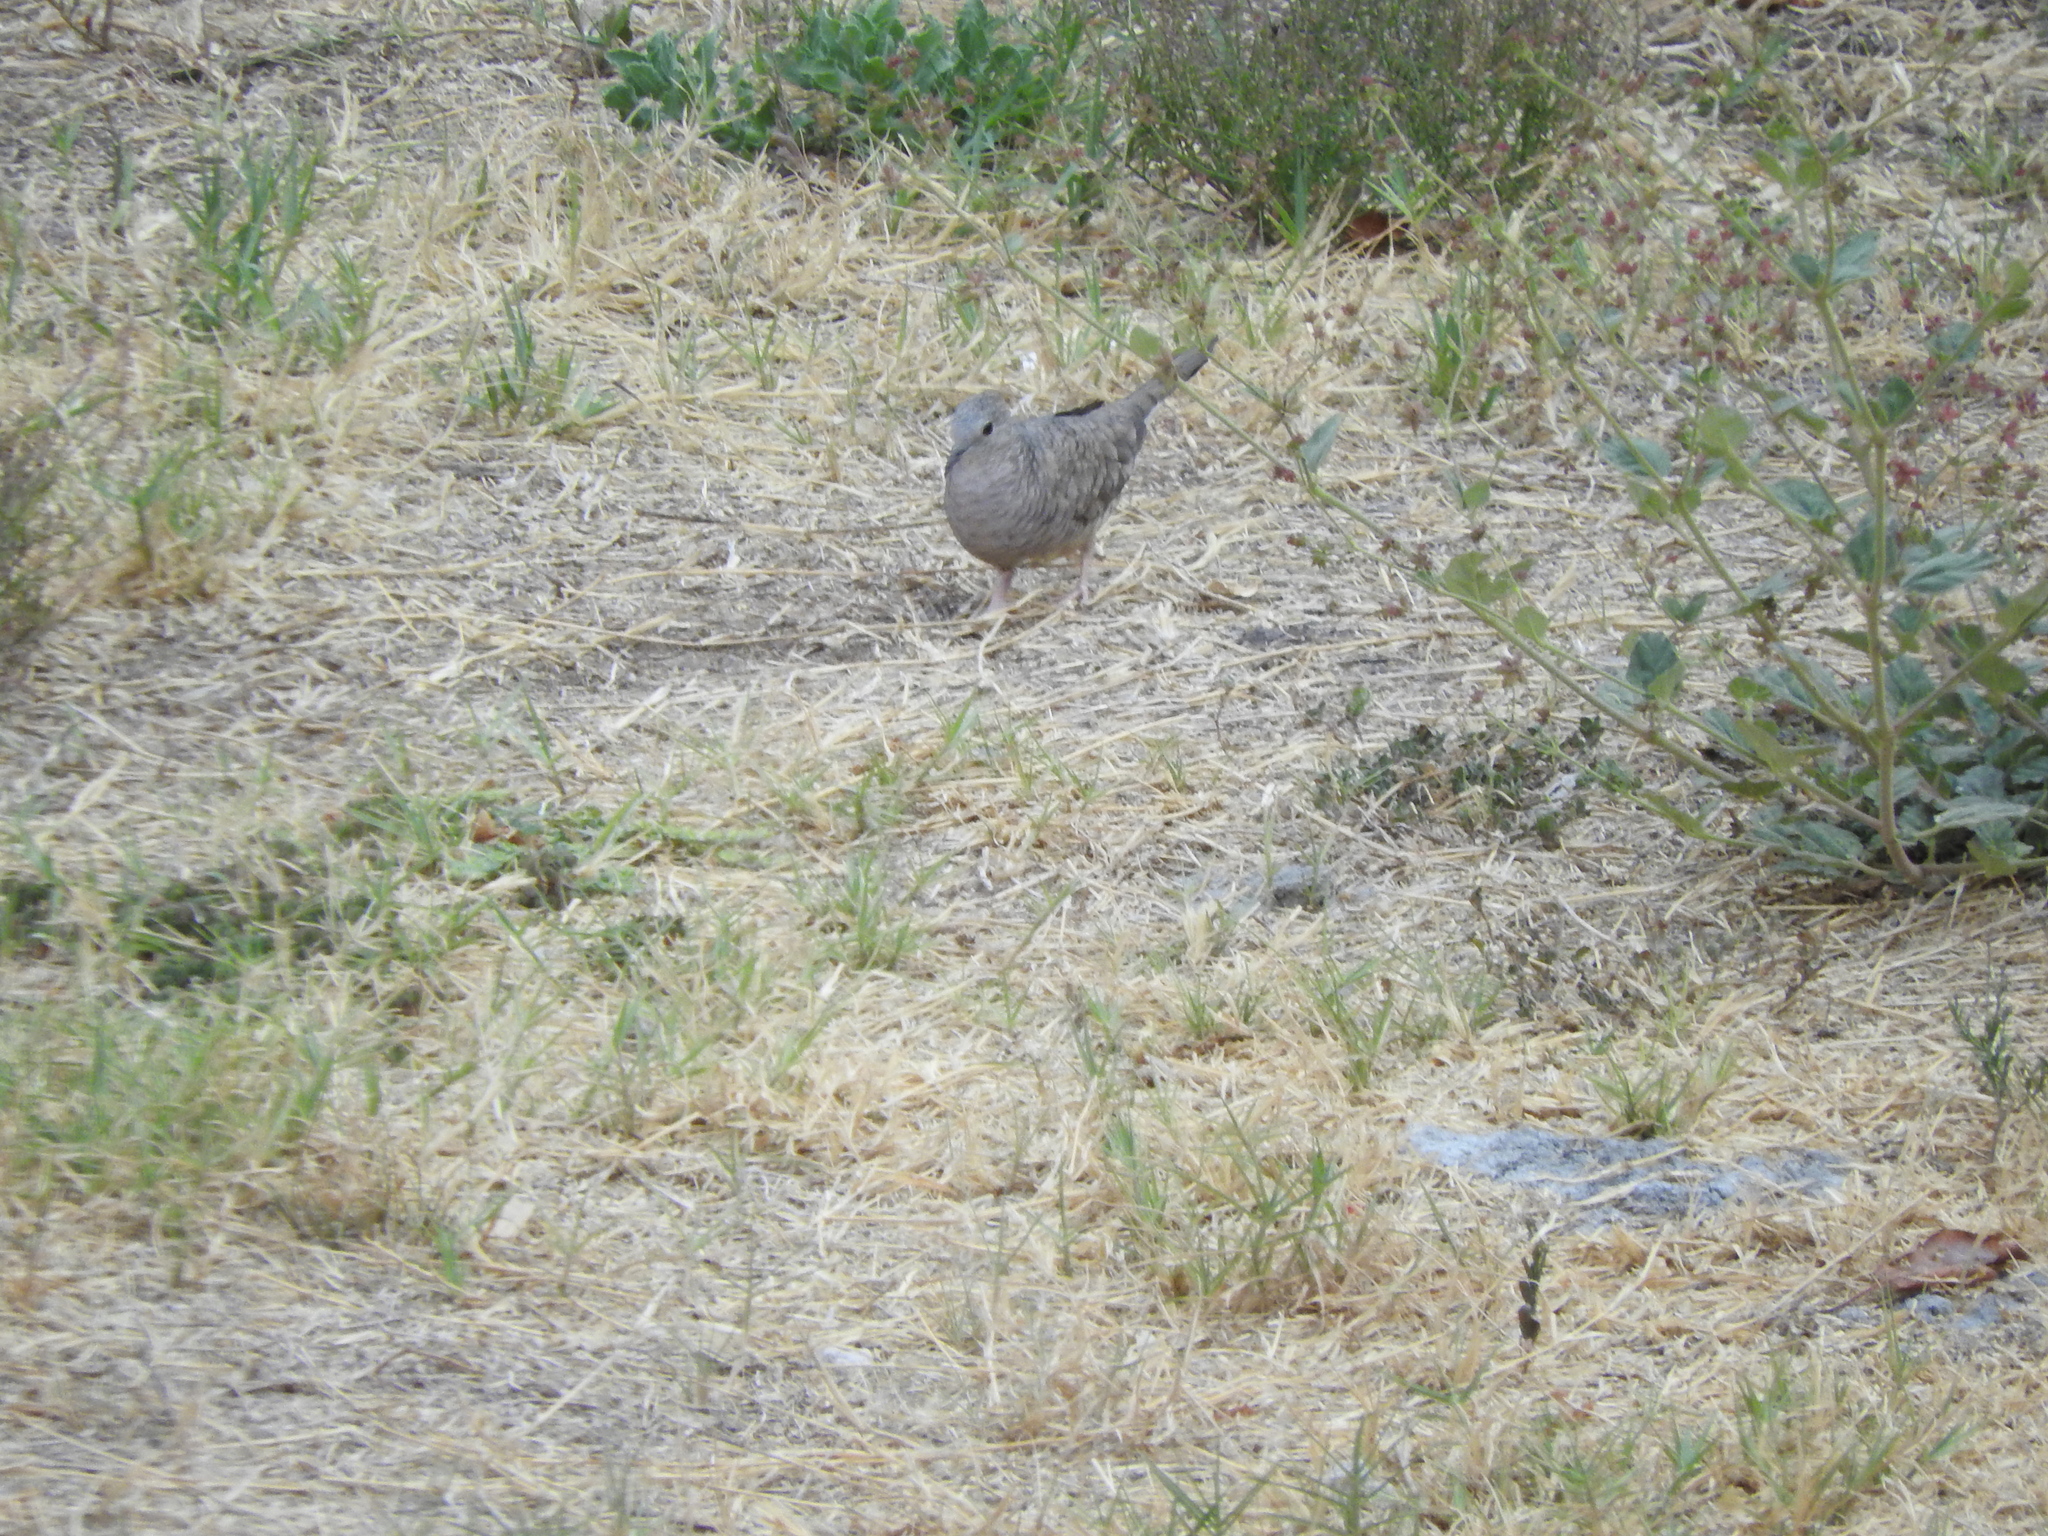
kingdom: Animalia
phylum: Chordata
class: Aves
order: Columbiformes
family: Columbidae
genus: Columbina
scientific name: Columbina inca
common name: Inca dove
